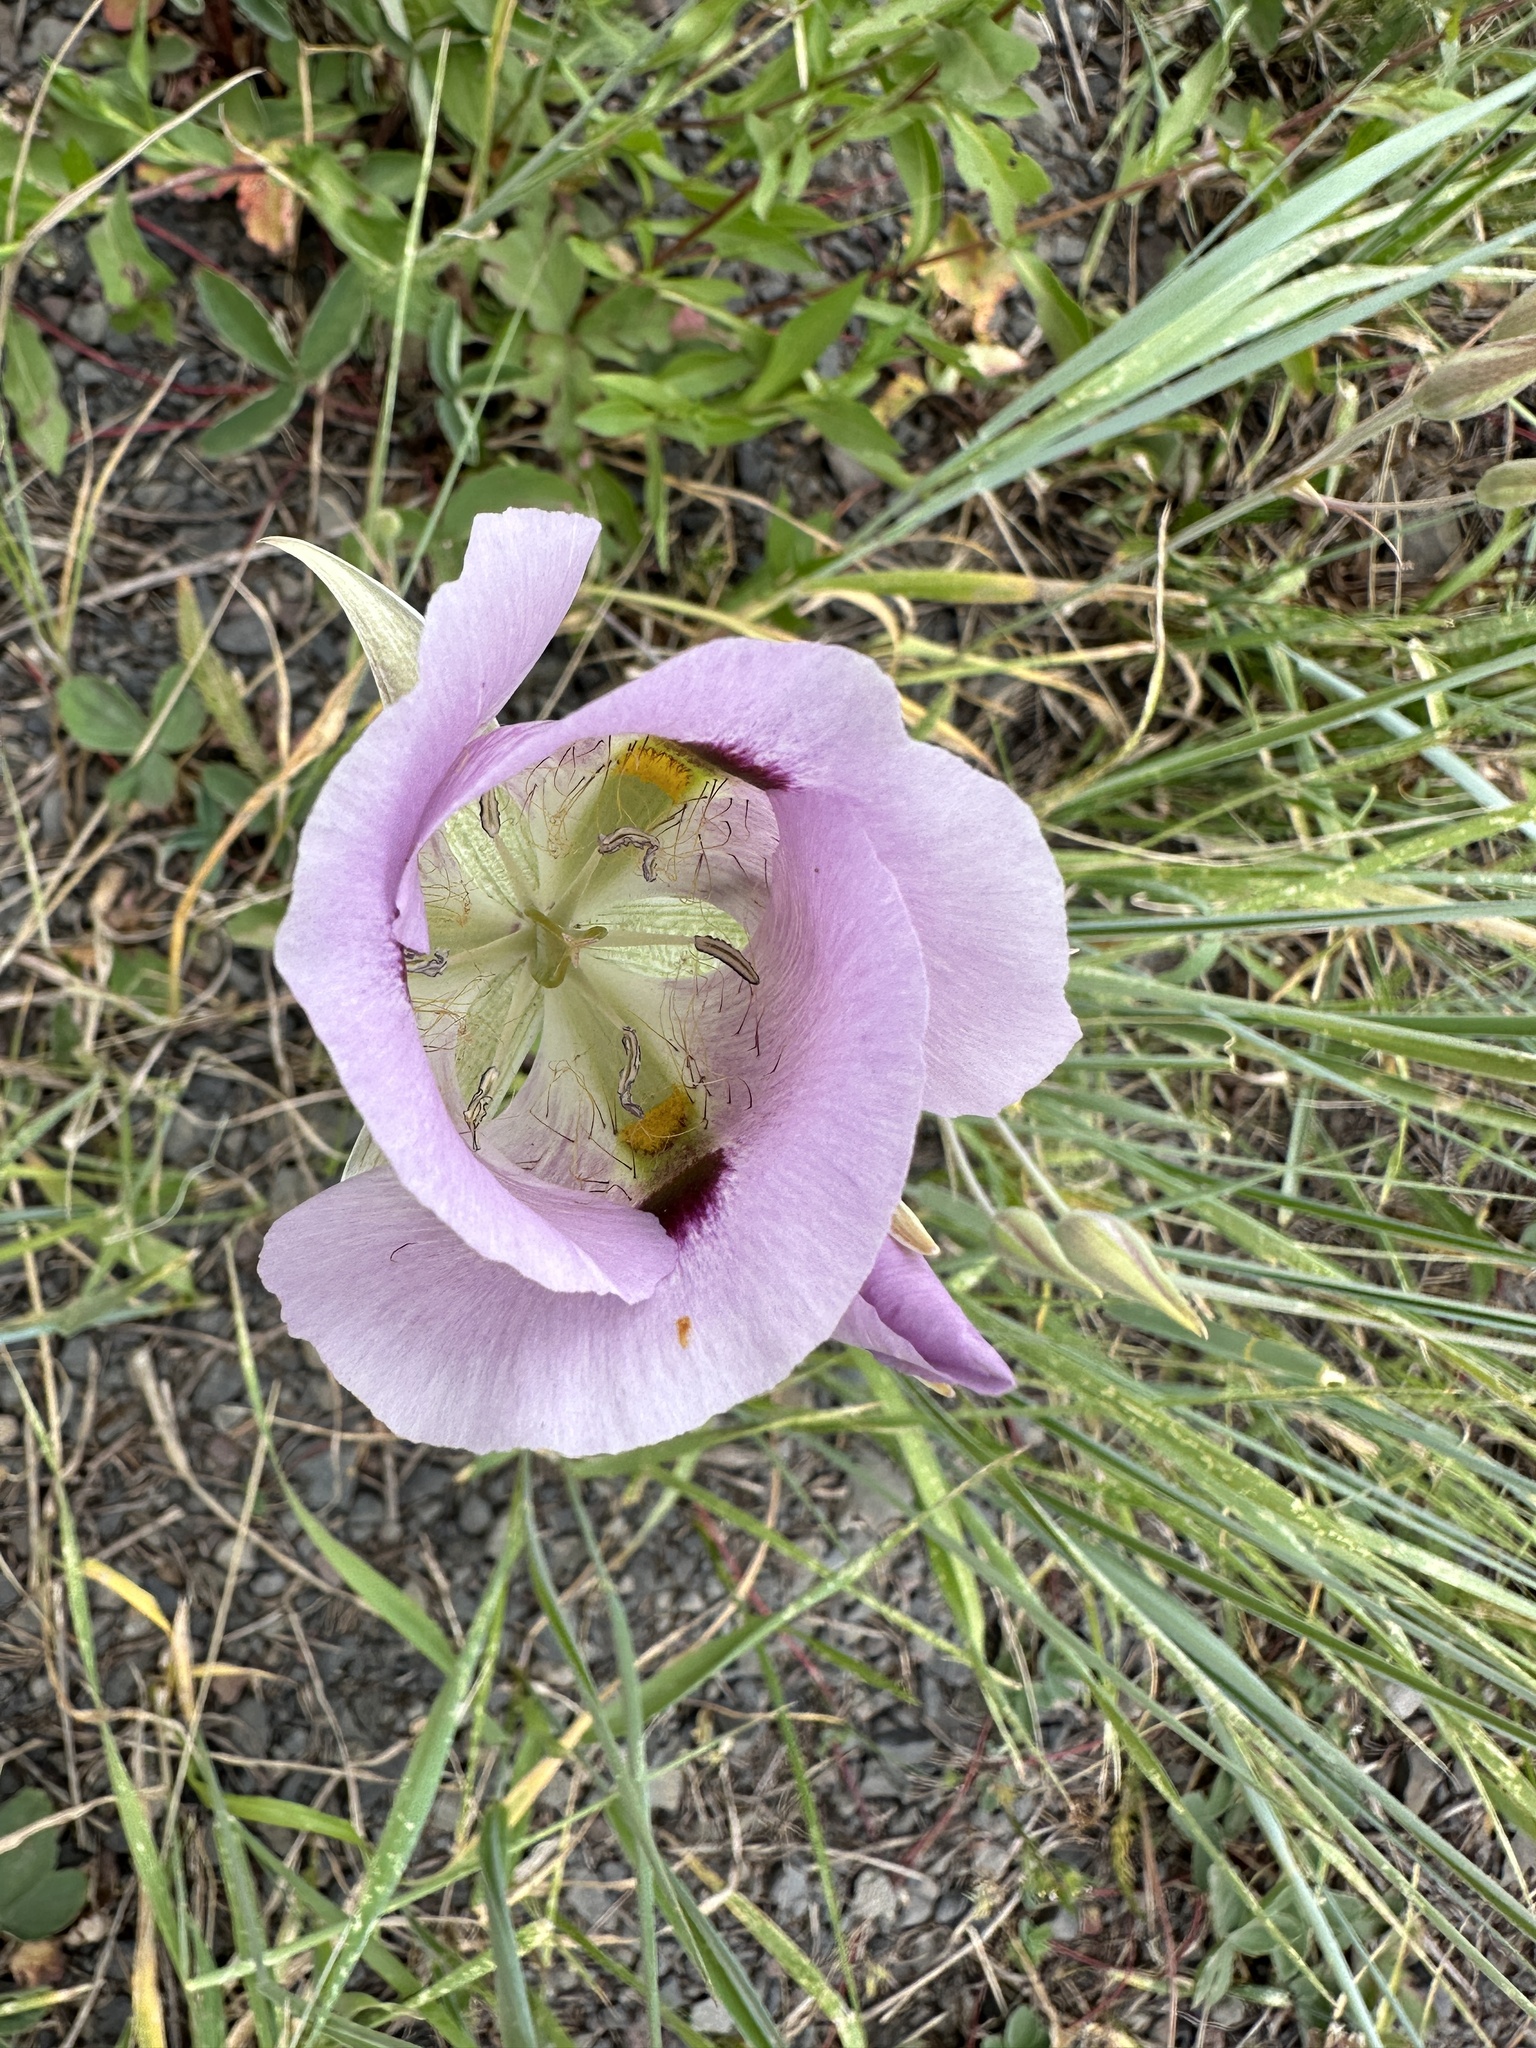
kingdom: Plantae
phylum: Tracheophyta
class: Liliopsida
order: Liliales
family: Liliaceae
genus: Calochortus
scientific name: Calochortus eurycarpus
